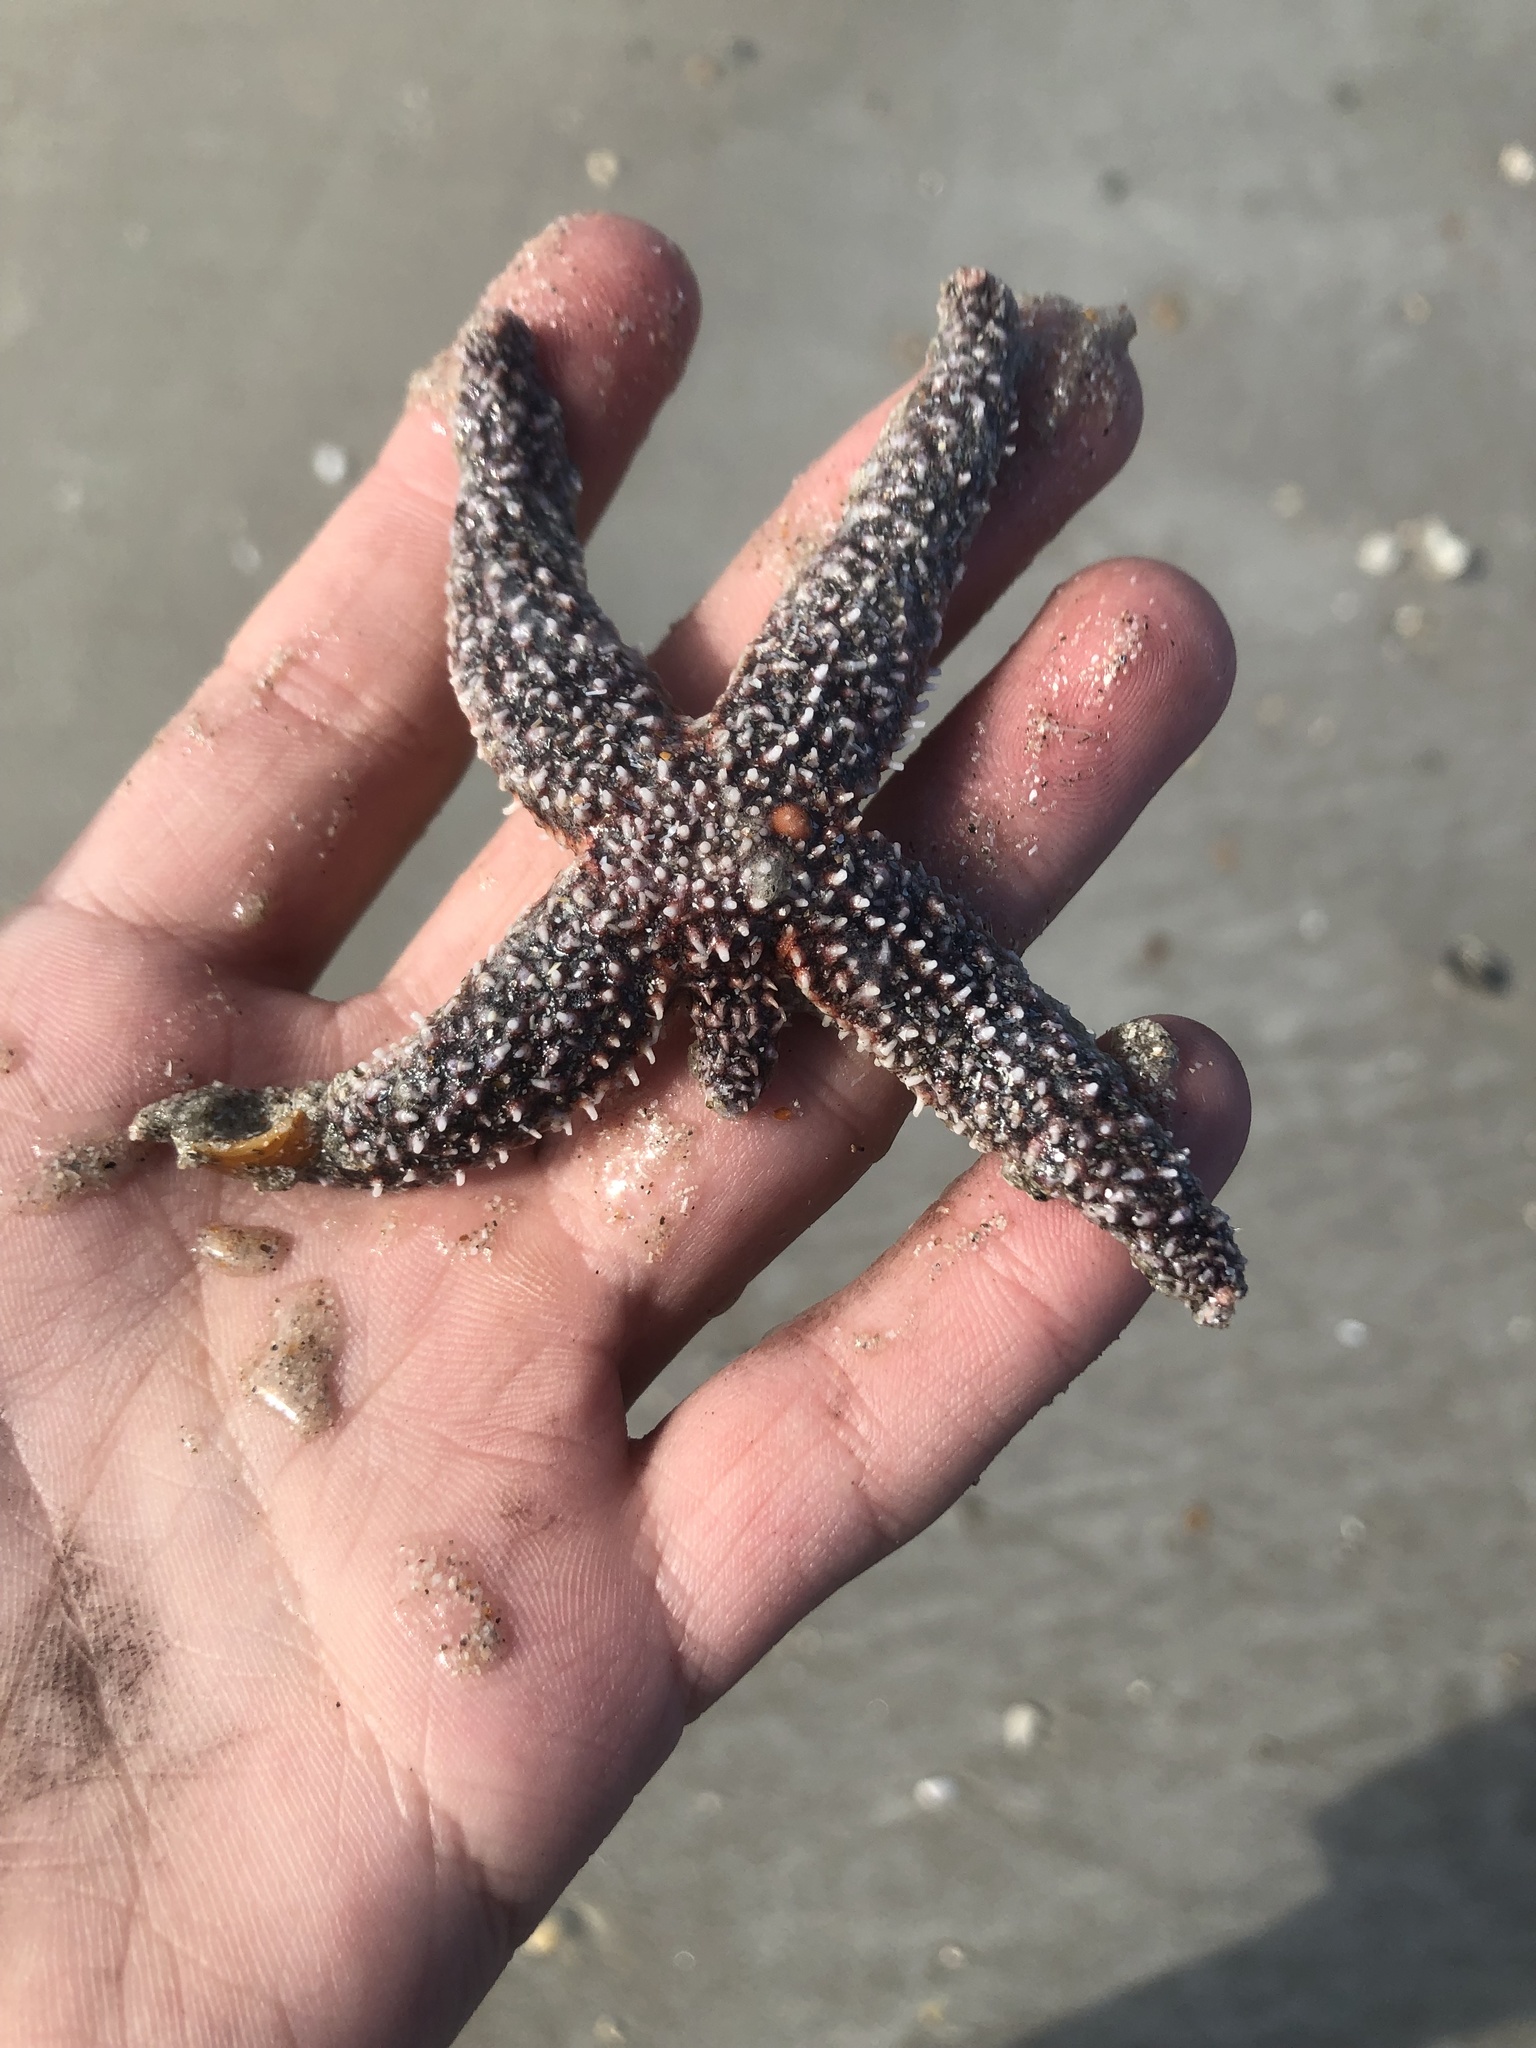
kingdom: Animalia
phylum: Echinodermata
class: Asteroidea
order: Forcipulatida
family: Asteriidae
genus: Asterias
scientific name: Asterias forbesi
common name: Forbes's sea star
